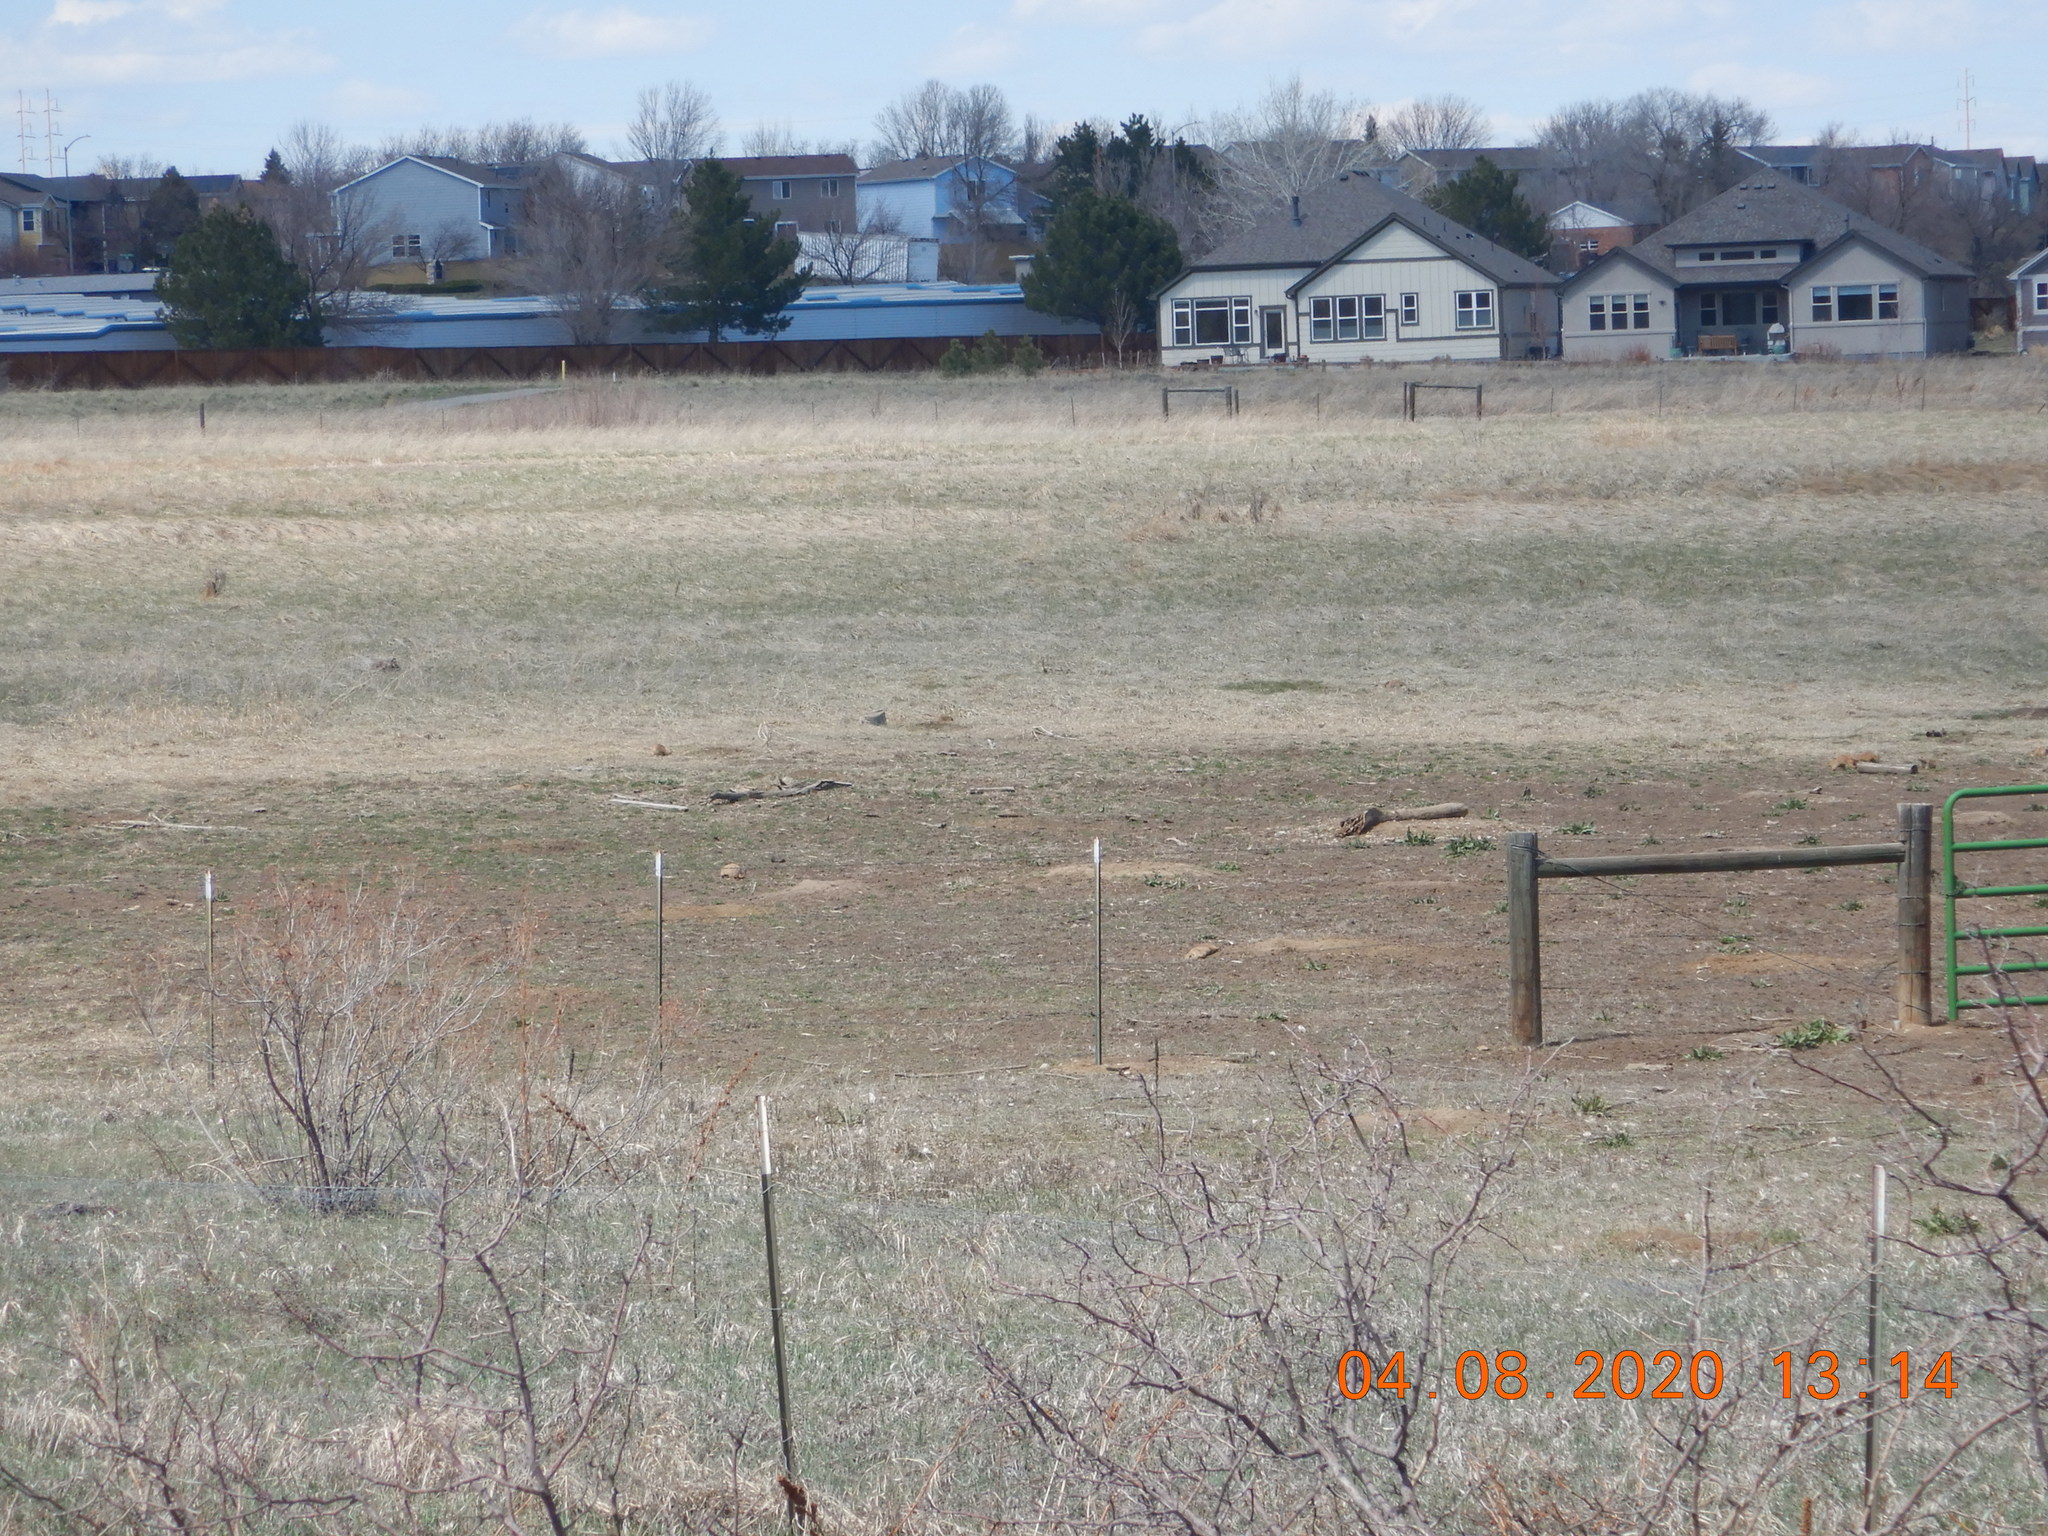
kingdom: Animalia
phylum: Chordata
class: Mammalia
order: Rodentia
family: Sciuridae
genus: Cynomys
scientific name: Cynomys ludovicianus
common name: Black-tailed prairie dog
